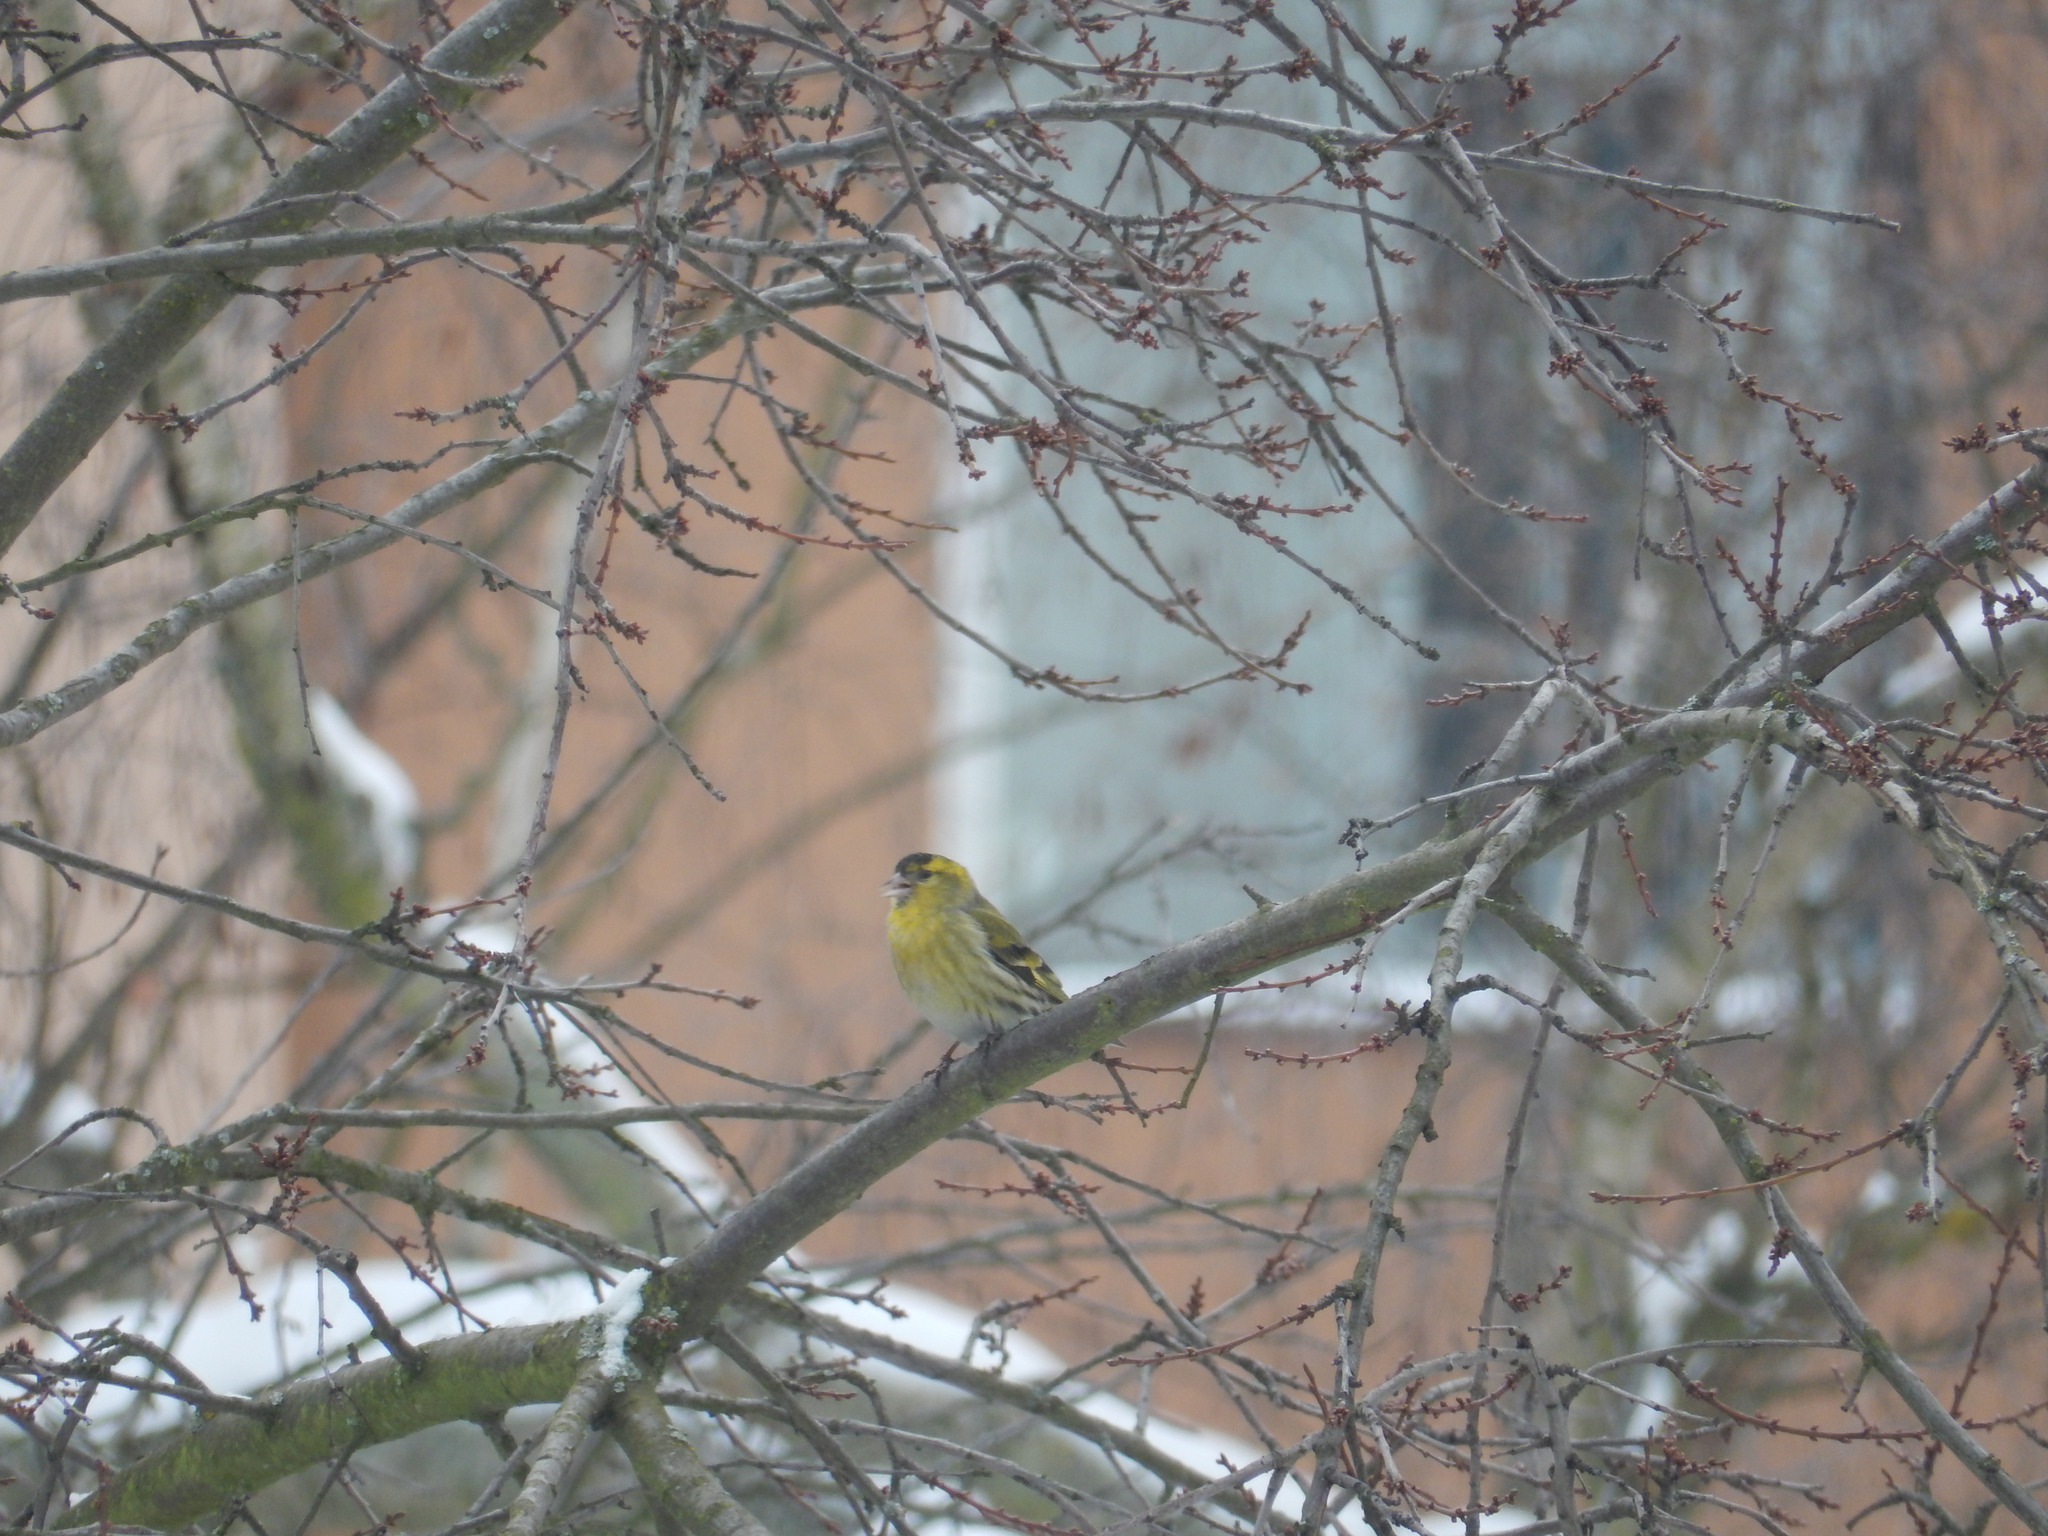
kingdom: Animalia
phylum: Chordata
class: Aves
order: Passeriformes
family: Fringillidae
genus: Spinus
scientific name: Spinus spinus
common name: Eurasian siskin
